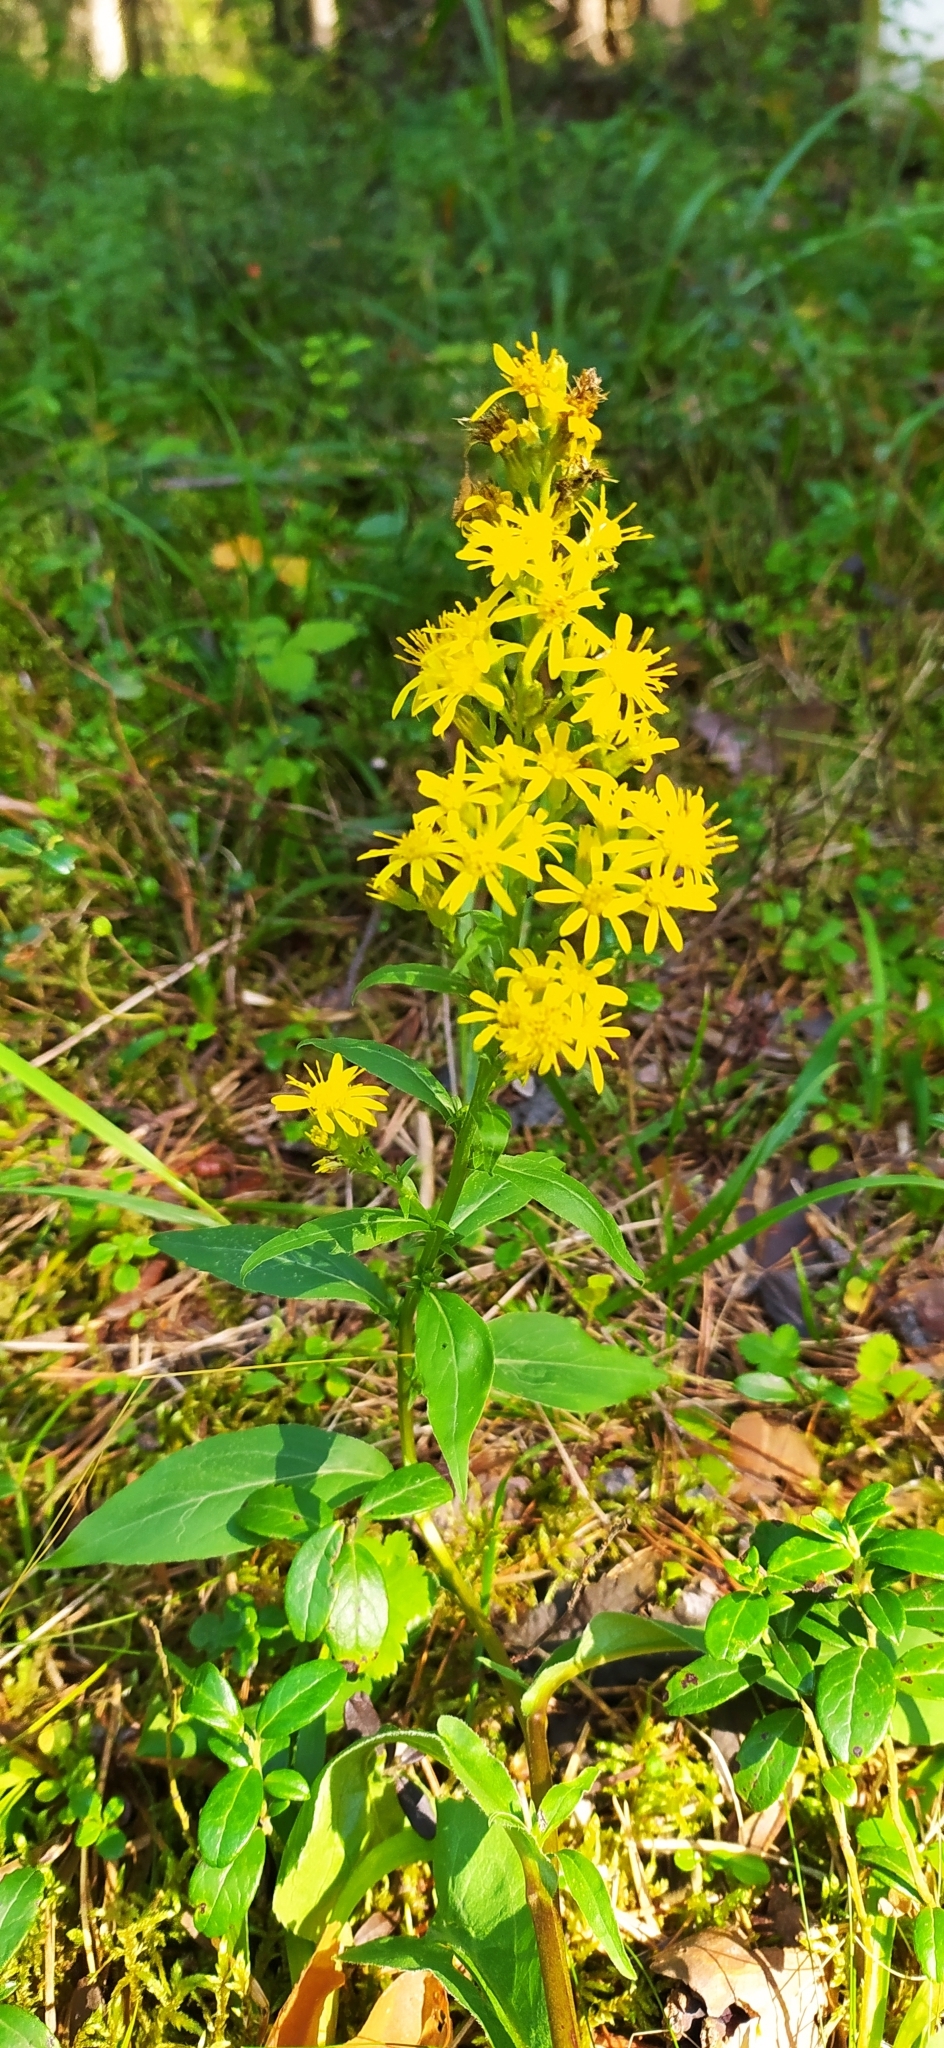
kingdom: Plantae
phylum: Tracheophyta
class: Magnoliopsida
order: Asterales
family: Asteraceae
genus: Solidago
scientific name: Solidago virgaurea
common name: Goldenrod
